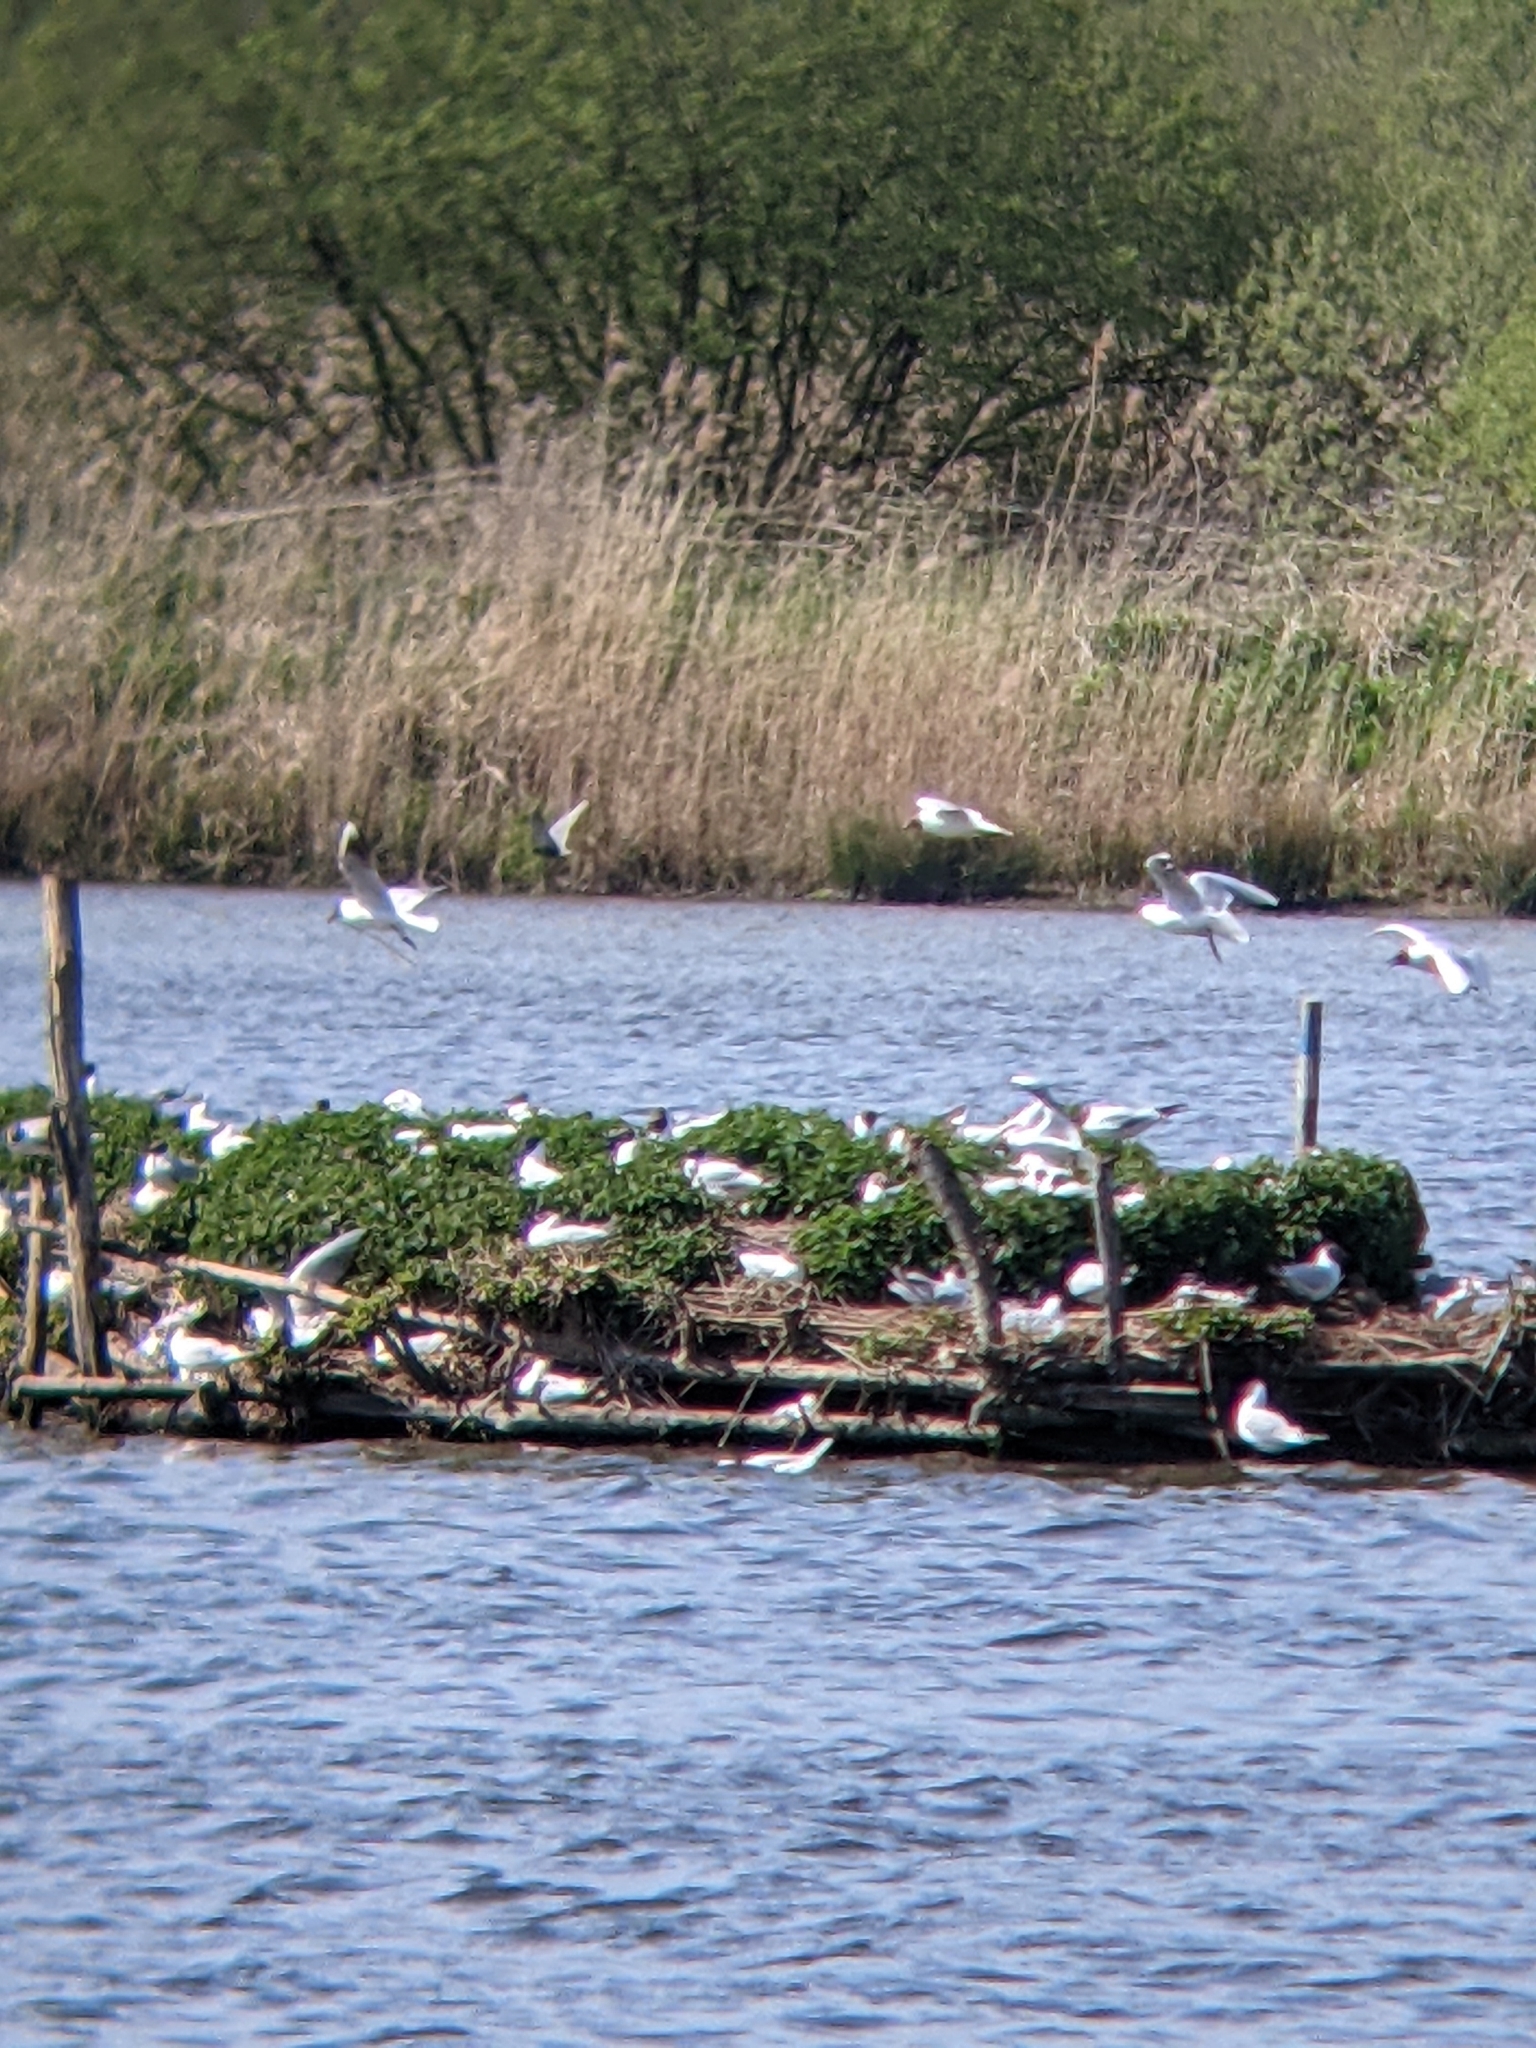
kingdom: Animalia
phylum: Chordata
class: Aves
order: Charadriiformes
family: Laridae
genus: Chlidonias
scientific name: Chlidonias niger
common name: Black tern
